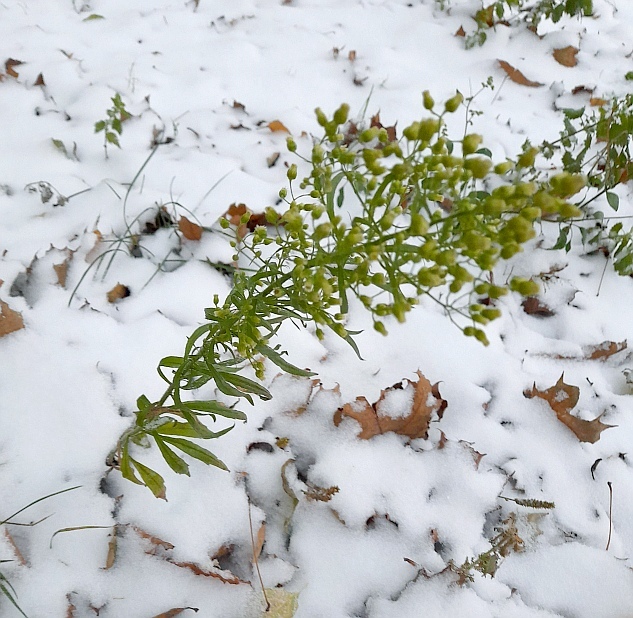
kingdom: Plantae
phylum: Tracheophyta
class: Magnoliopsida
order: Asterales
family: Asteraceae
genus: Erigeron
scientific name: Erigeron canadensis
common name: Canadian fleabane
